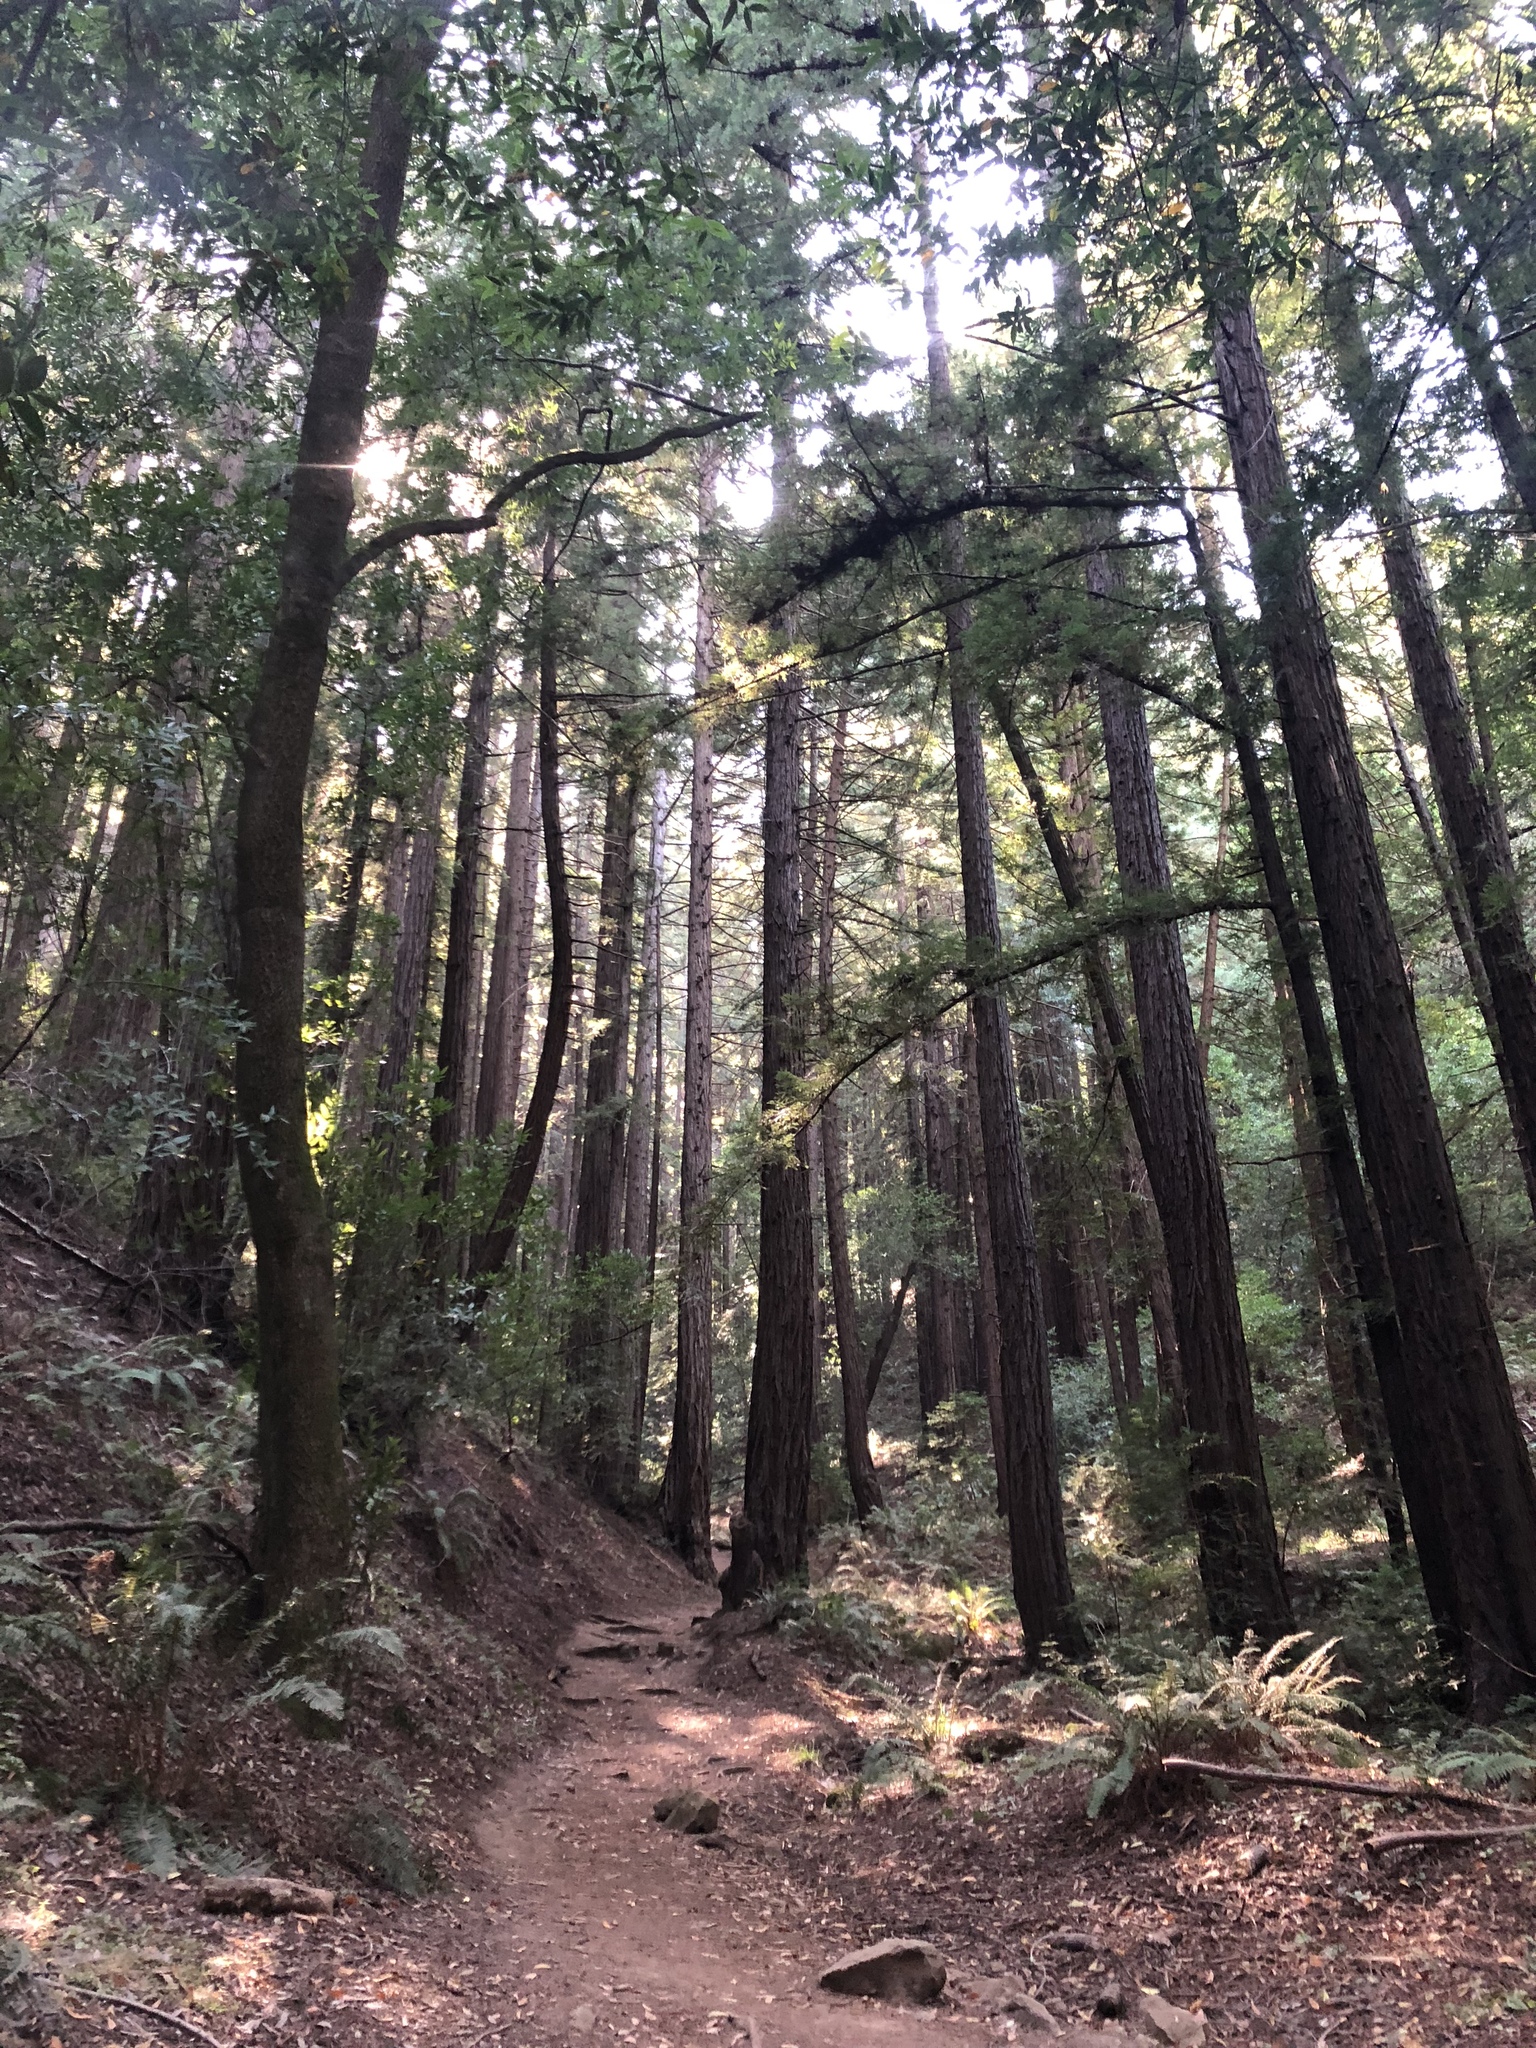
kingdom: Plantae
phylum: Tracheophyta
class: Pinopsida
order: Pinales
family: Cupressaceae
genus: Sequoia
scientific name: Sequoia sempervirens
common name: Coast redwood
